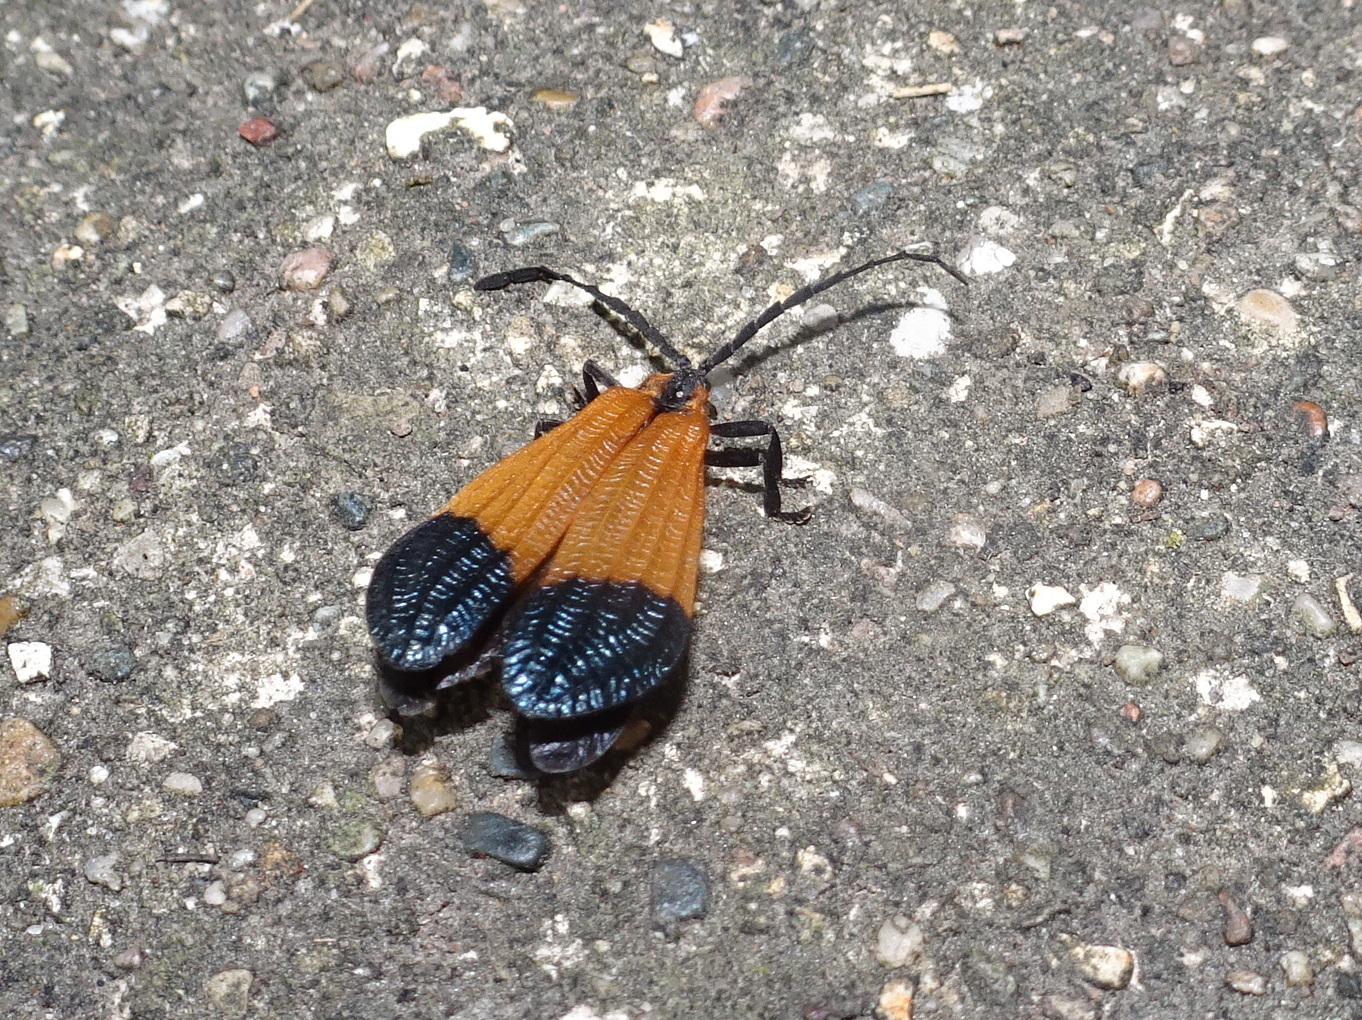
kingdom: Animalia
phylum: Arthropoda
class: Insecta
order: Coleoptera
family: Lycidae
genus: Calopteron
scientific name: Calopteron terminale
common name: End band net-winged beetle
